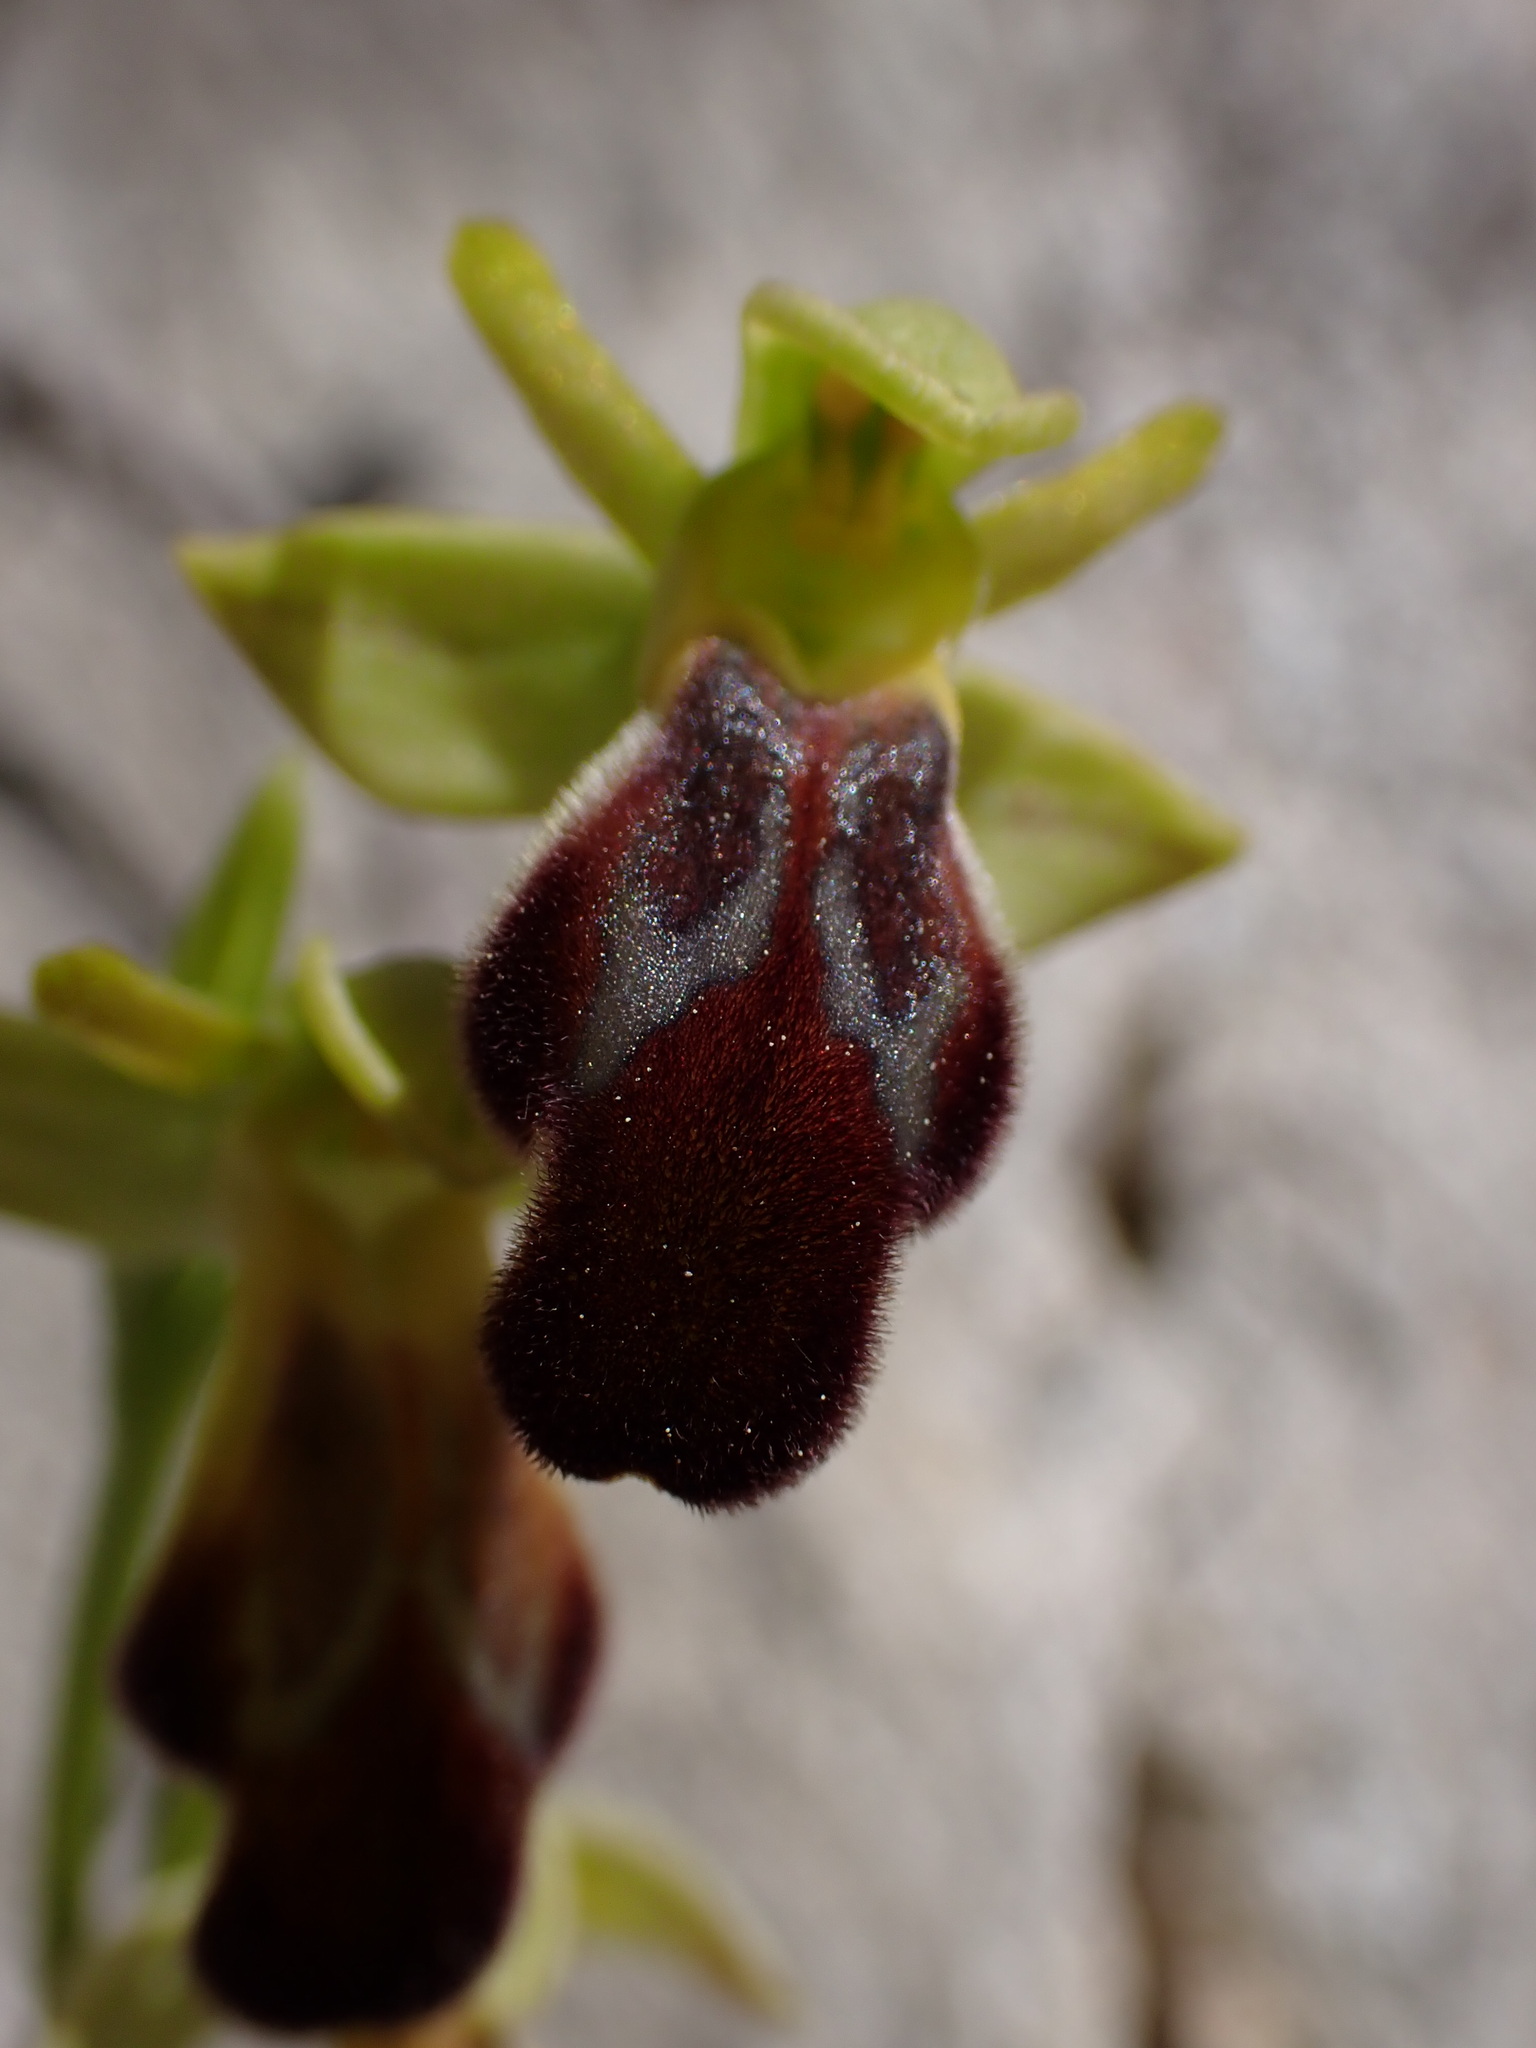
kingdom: Plantae
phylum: Tracheophyta
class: Liliopsida
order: Asparagales
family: Orchidaceae
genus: Ophrys
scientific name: Ophrys fusca
